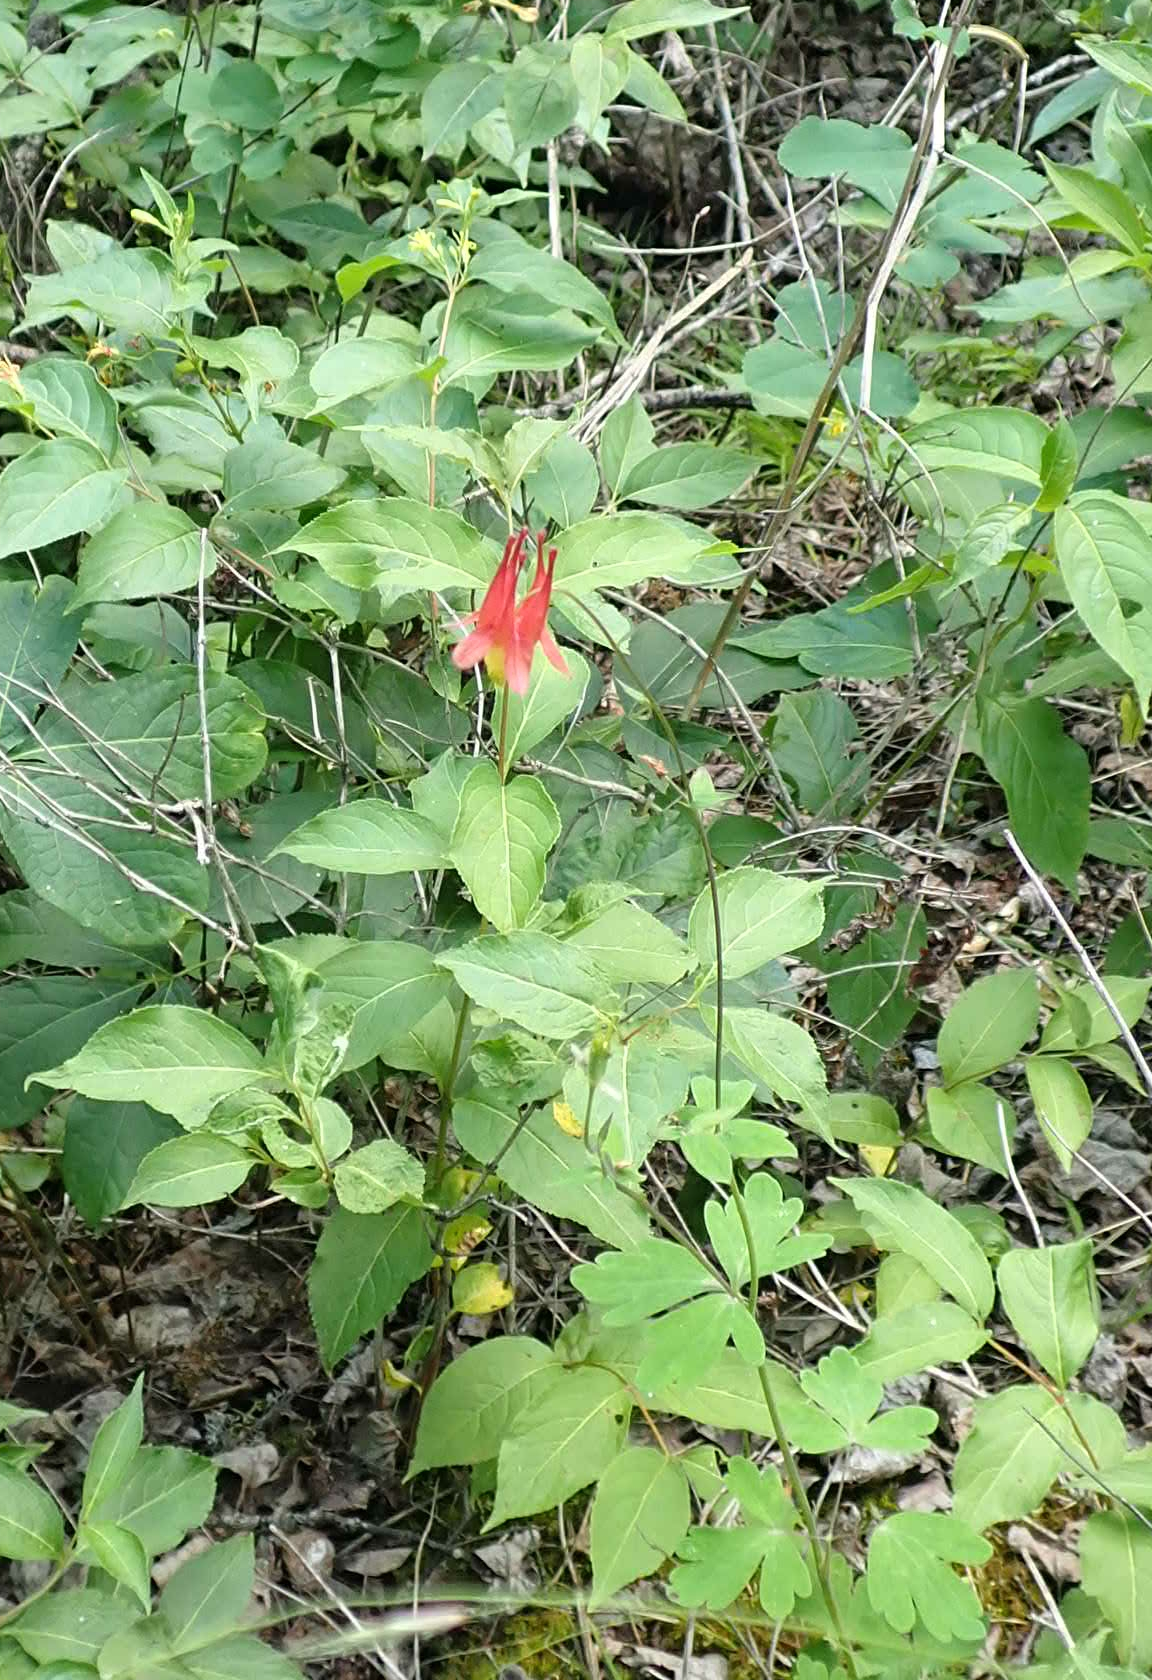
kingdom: Plantae
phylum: Tracheophyta
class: Magnoliopsida
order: Ranunculales
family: Ranunculaceae
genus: Aquilegia
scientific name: Aquilegia canadensis
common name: American columbine
